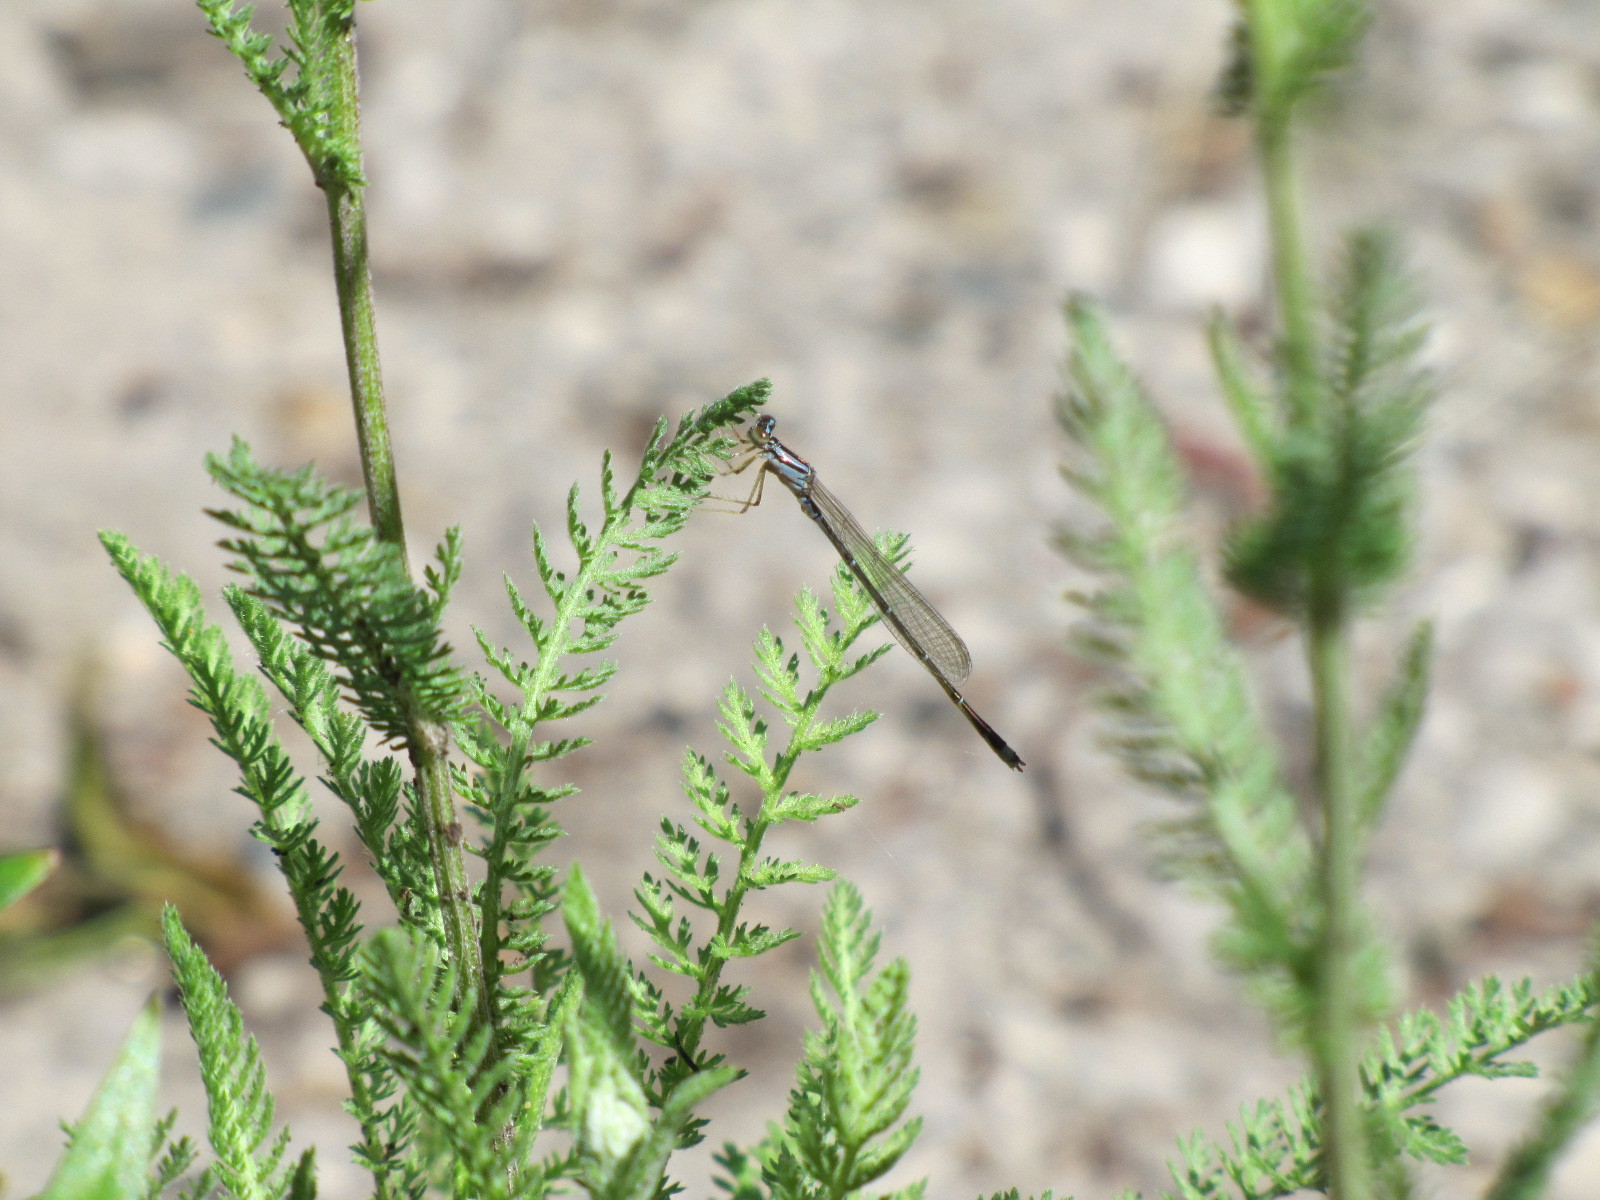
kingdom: Animalia
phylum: Arthropoda
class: Insecta
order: Odonata
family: Coenagrionidae
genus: Enallagma
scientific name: Enallagma signatum
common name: Orange bluet
